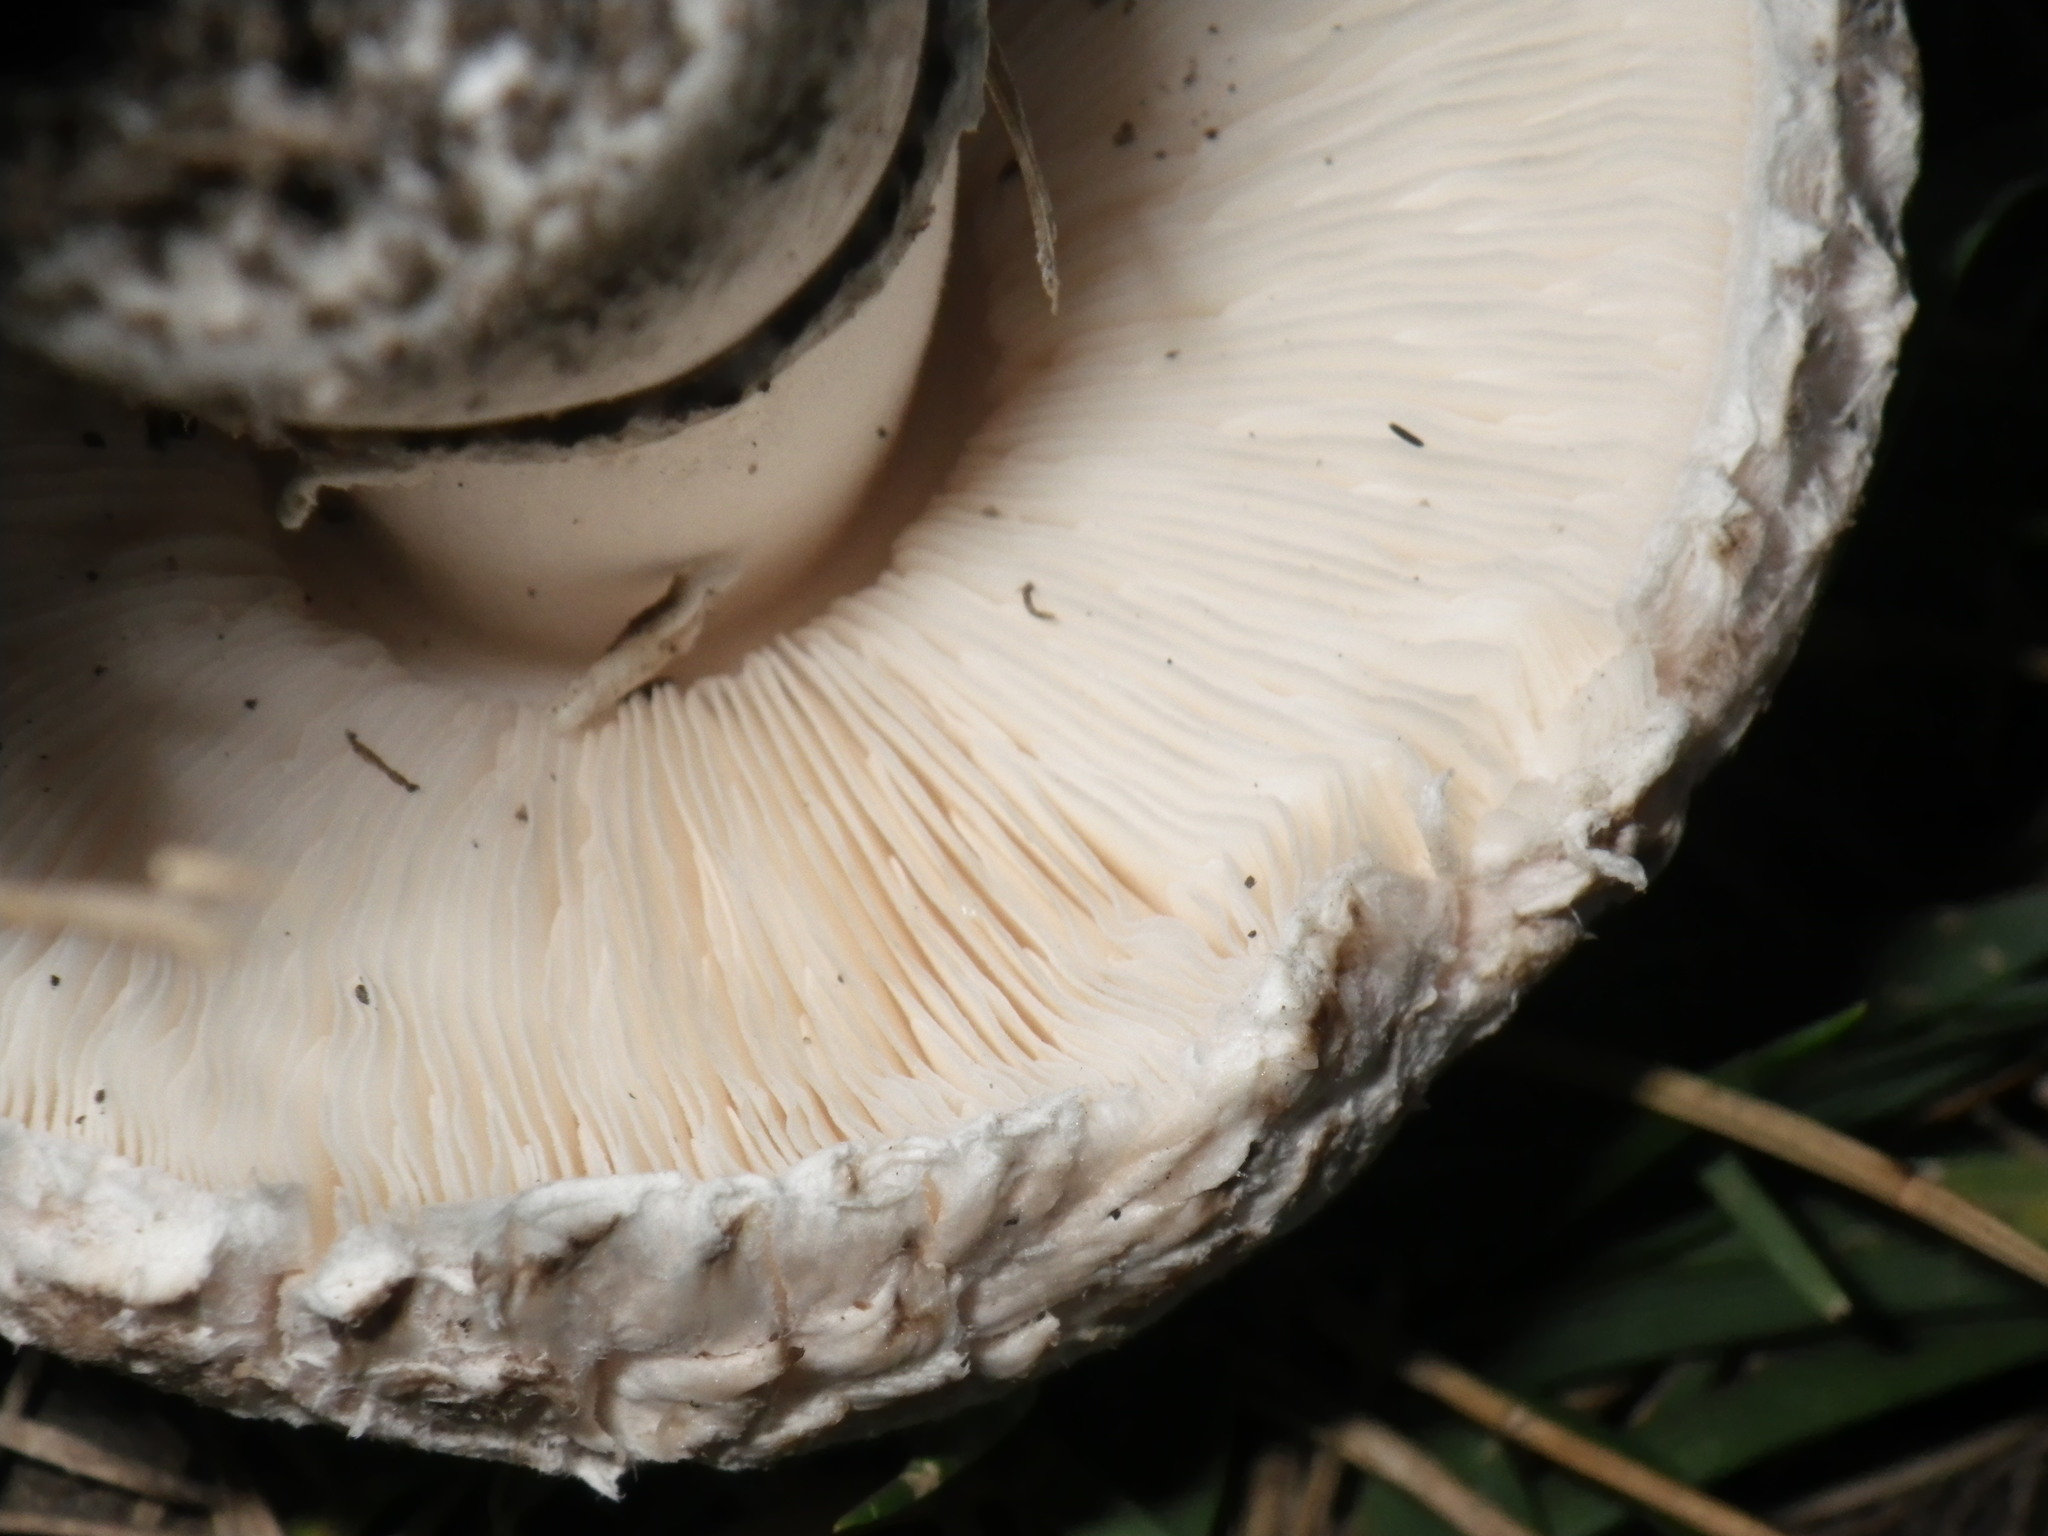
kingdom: Fungi
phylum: Basidiomycota
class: Agaricomycetes
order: Agaricales
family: Agaricaceae
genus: Leucoagaricus
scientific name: Leucoagaricus barssii
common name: Smoky dapperling
